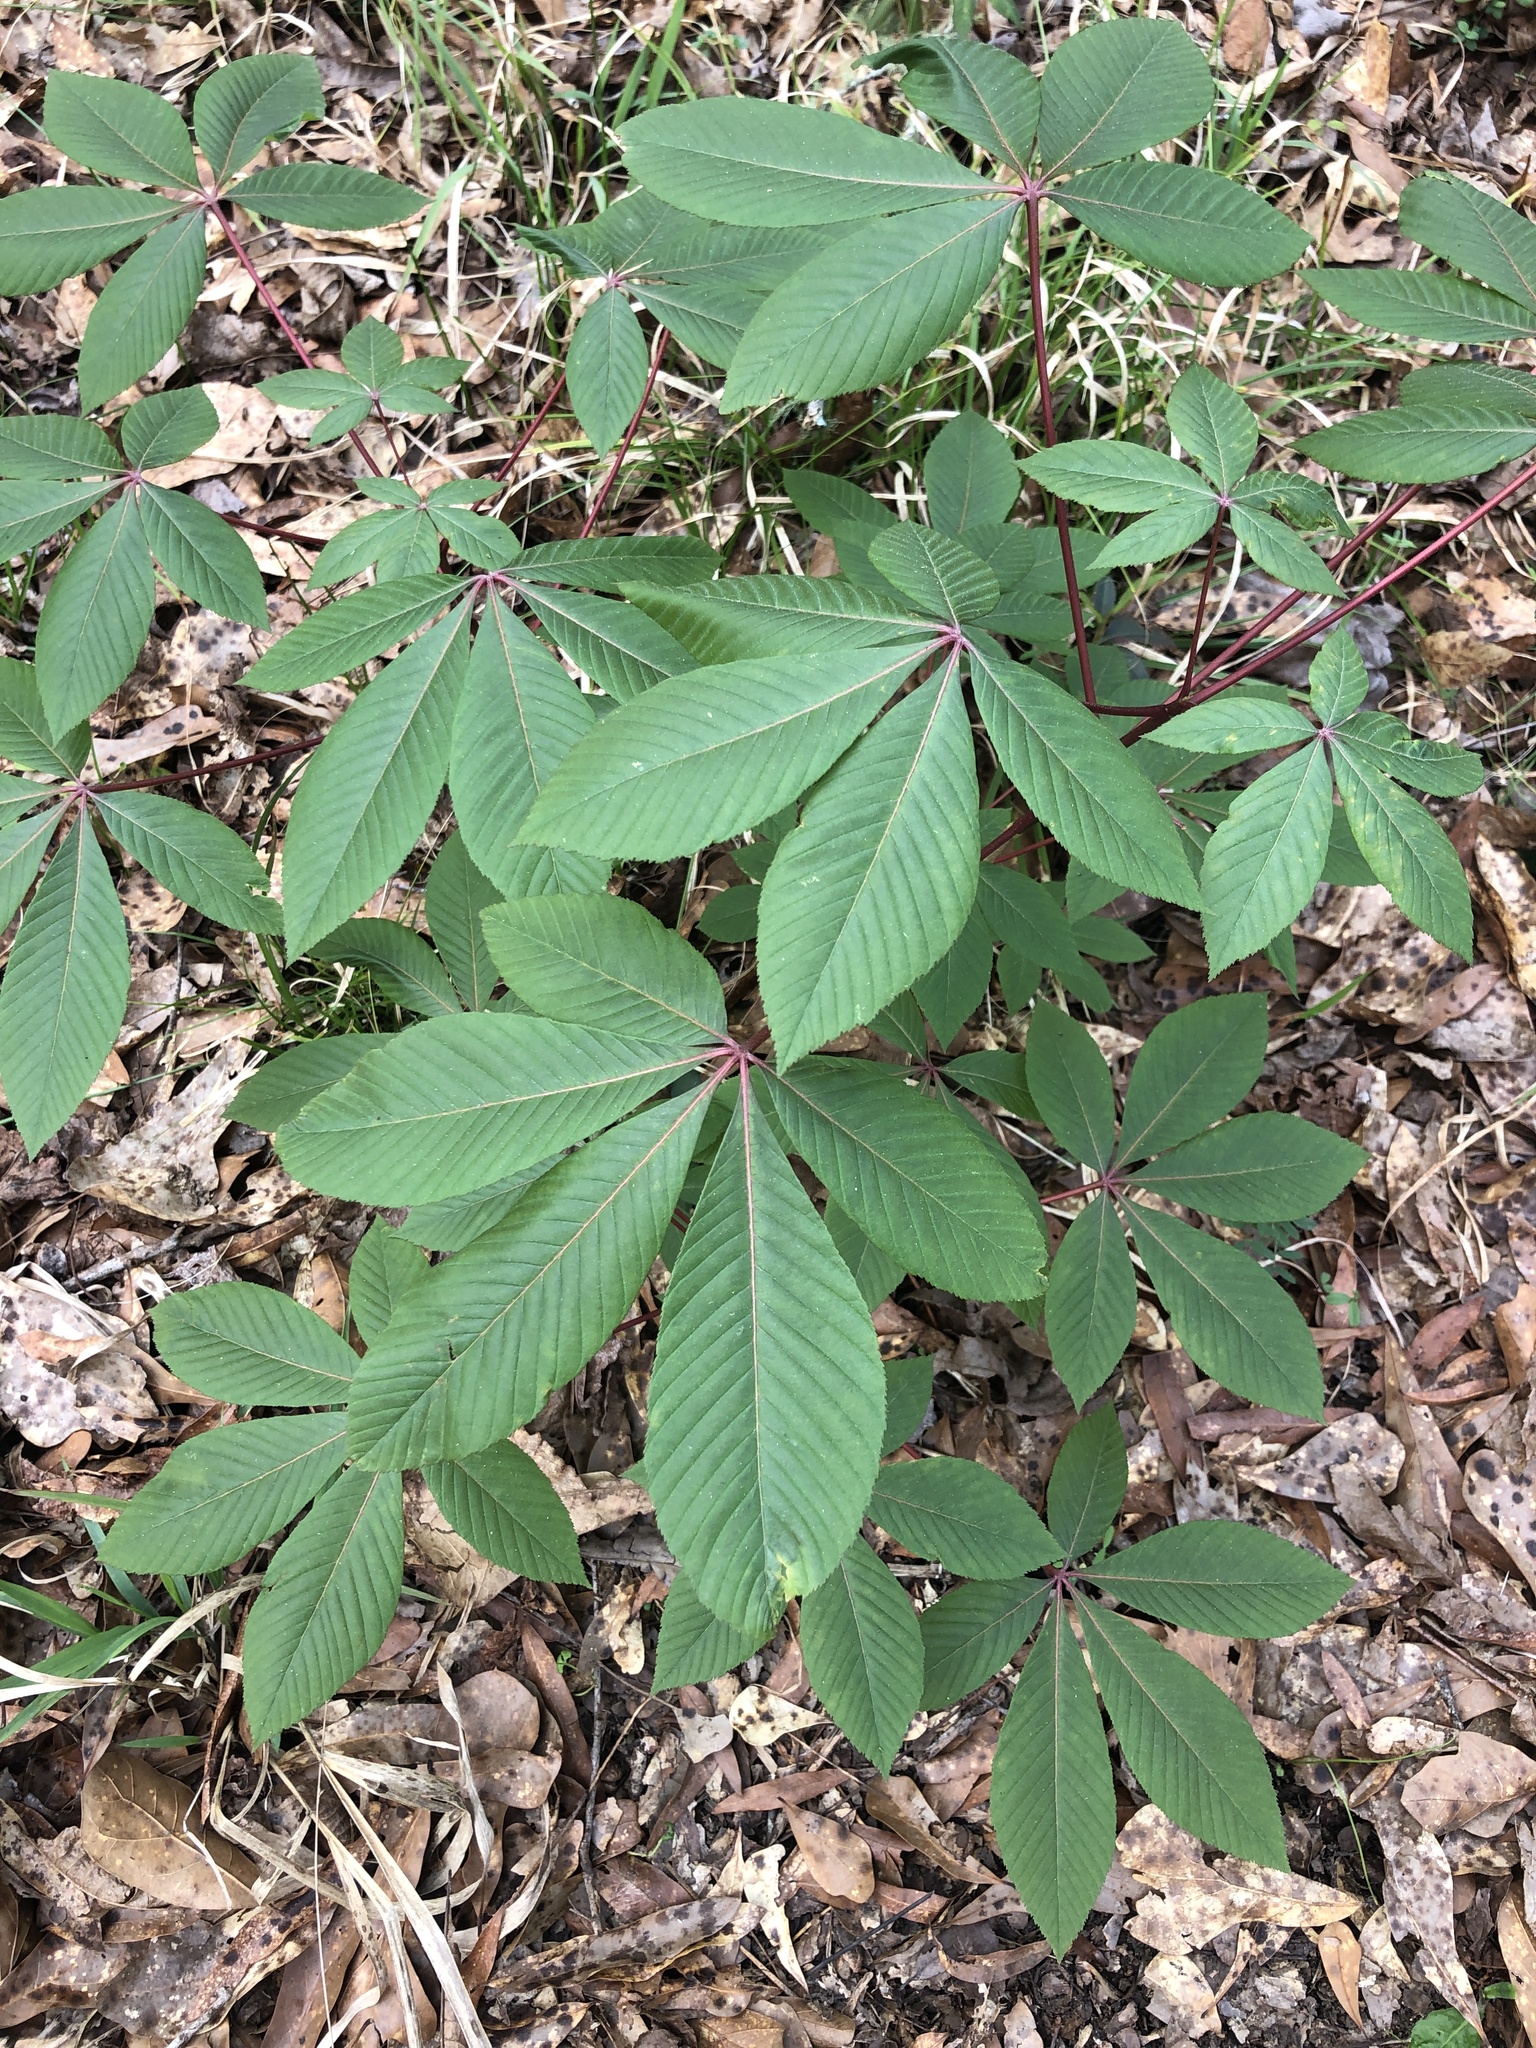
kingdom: Plantae
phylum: Tracheophyta
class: Magnoliopsida
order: Sapindales
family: Sapindaceae
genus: Aesculus
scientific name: Aesculus pavia
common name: Red buckeye
